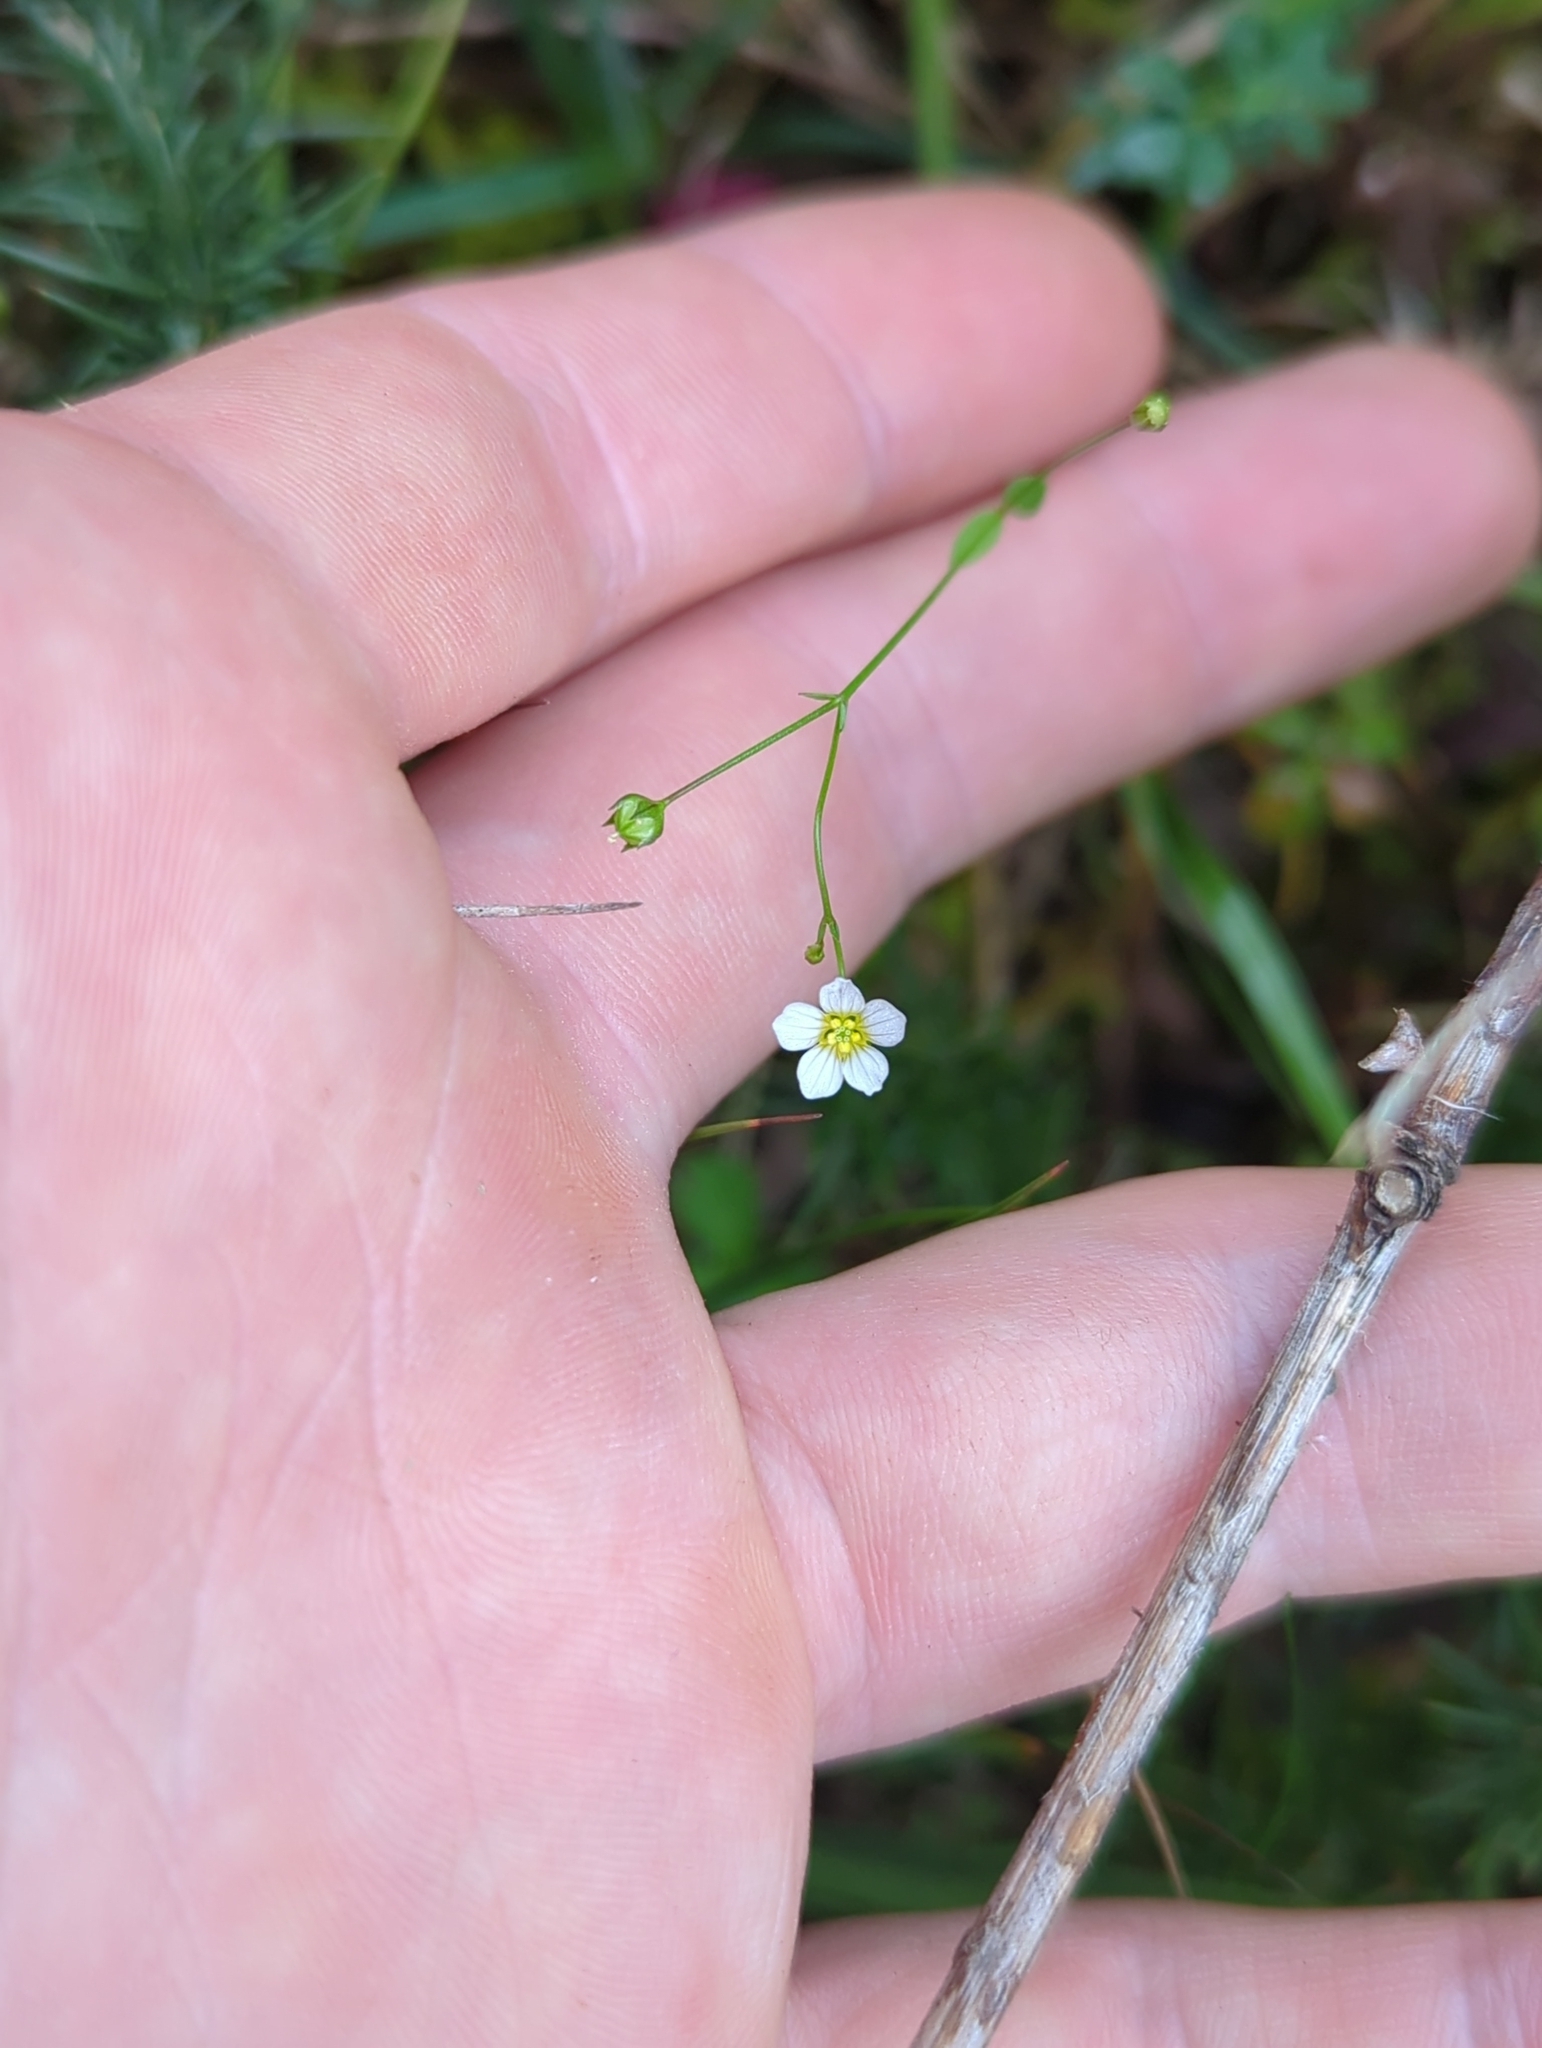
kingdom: Plantae
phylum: Tracheophyta
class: Magnoliopsida
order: Malpighiales
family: Linaceae
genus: Linum
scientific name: Linum catharticum
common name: Fairy flax
